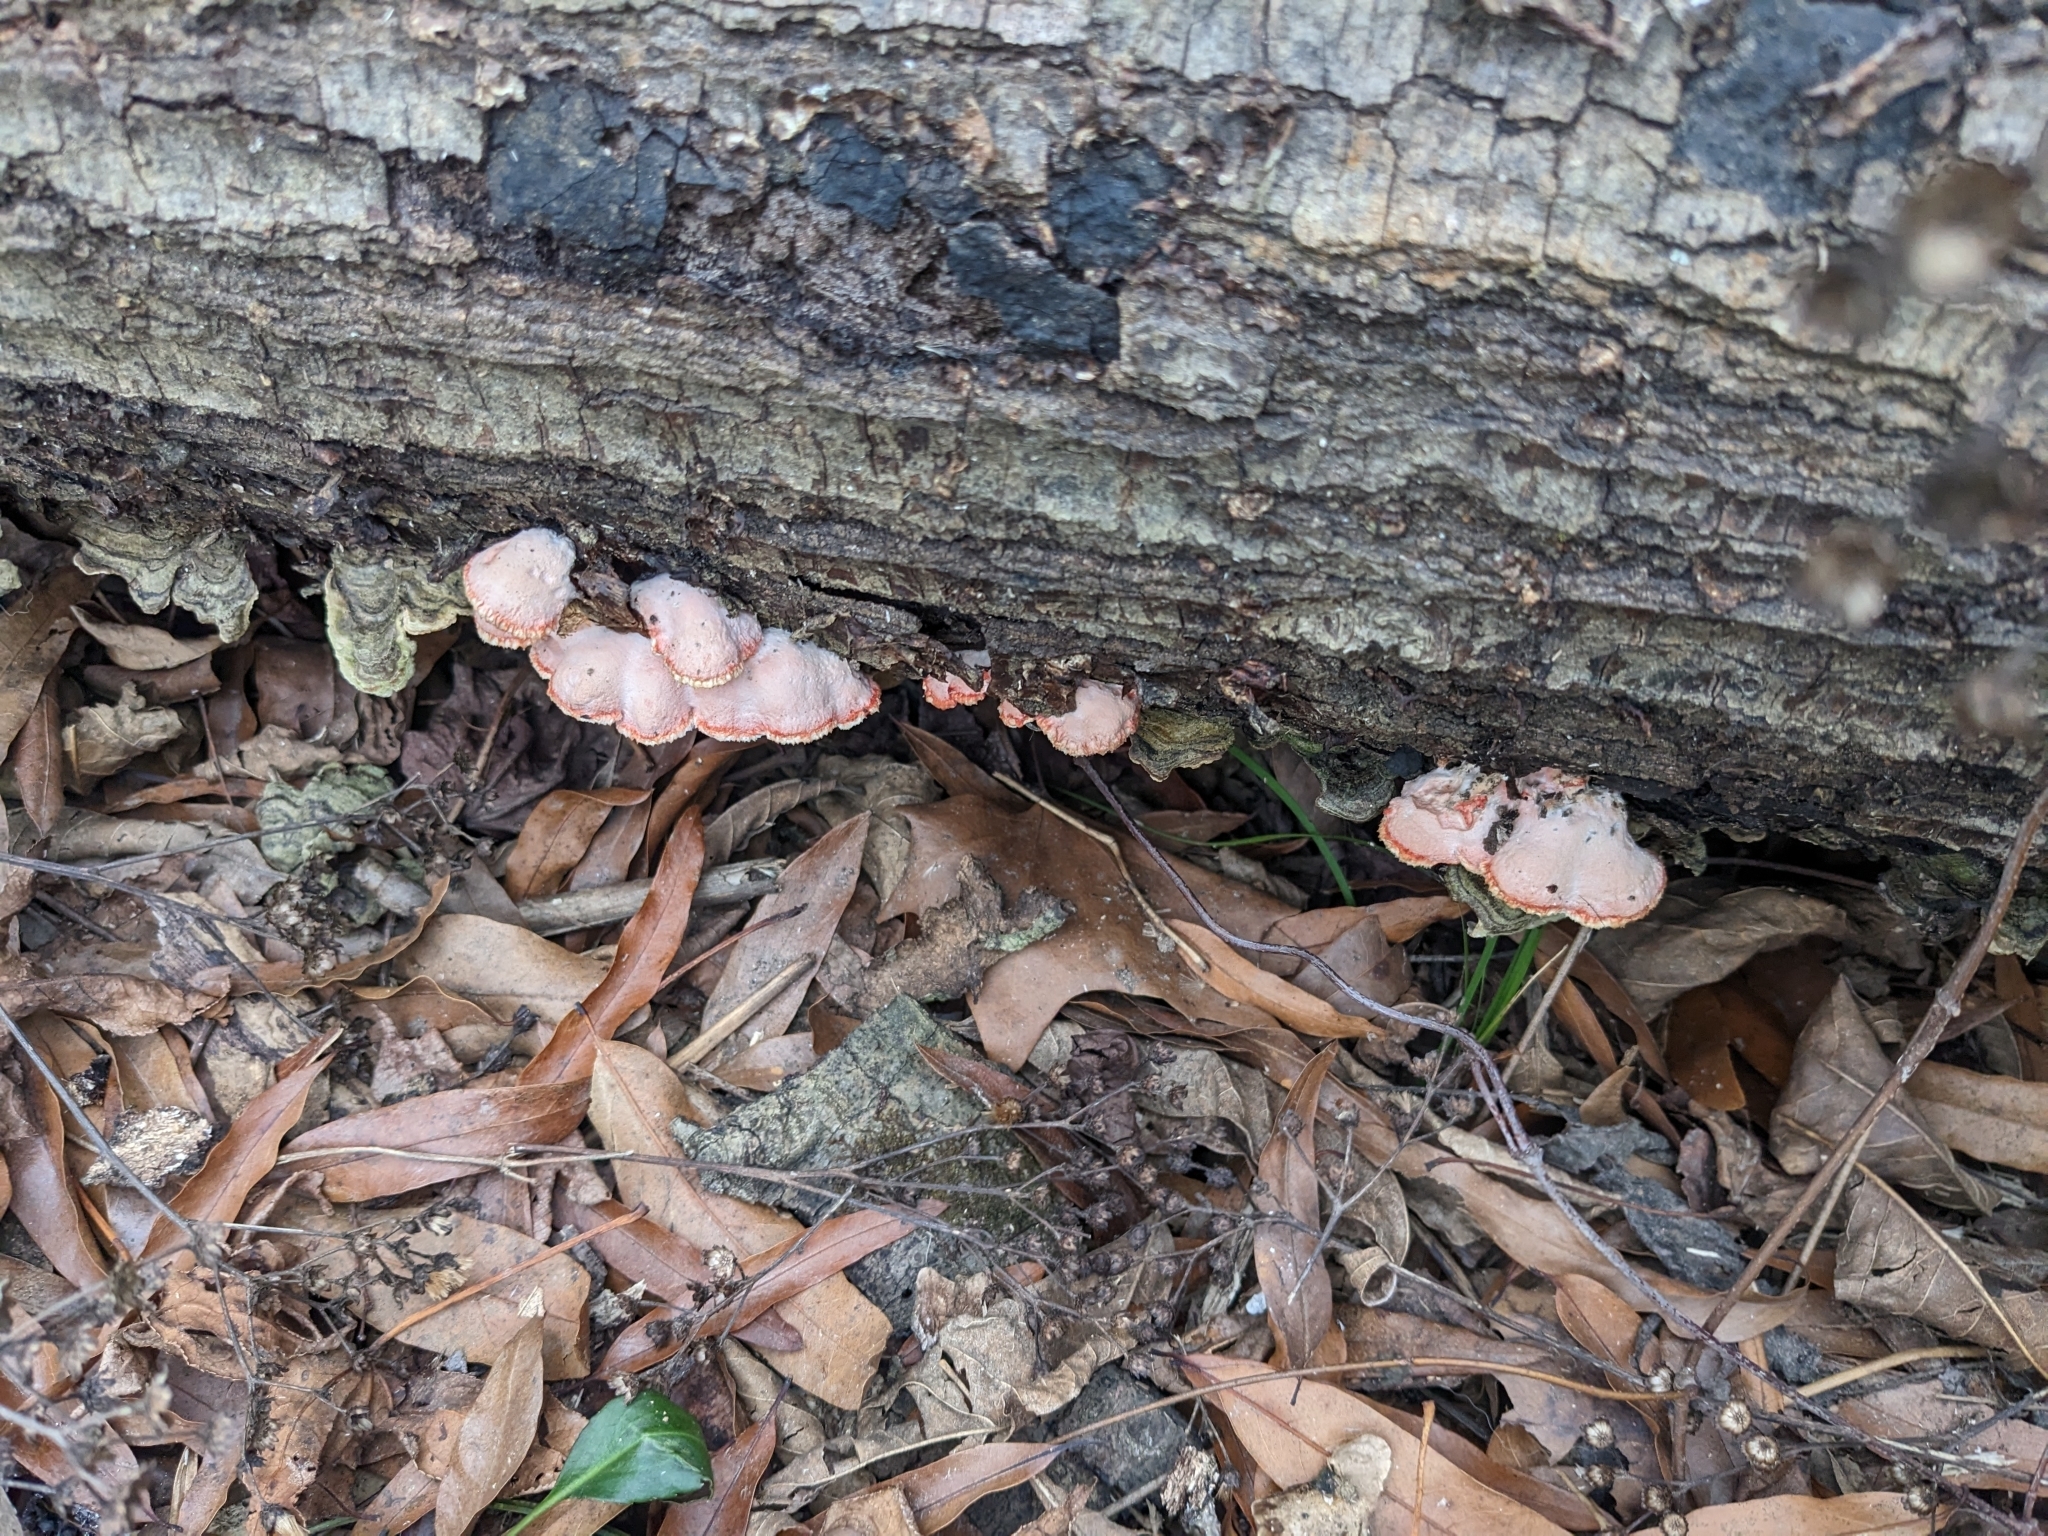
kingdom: Fungi
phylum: Basidiomycota
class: Agaricomycetes
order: Polyporales
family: Irpicaceae
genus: Byssomerulius
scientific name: Byssomerulius incarnatus
